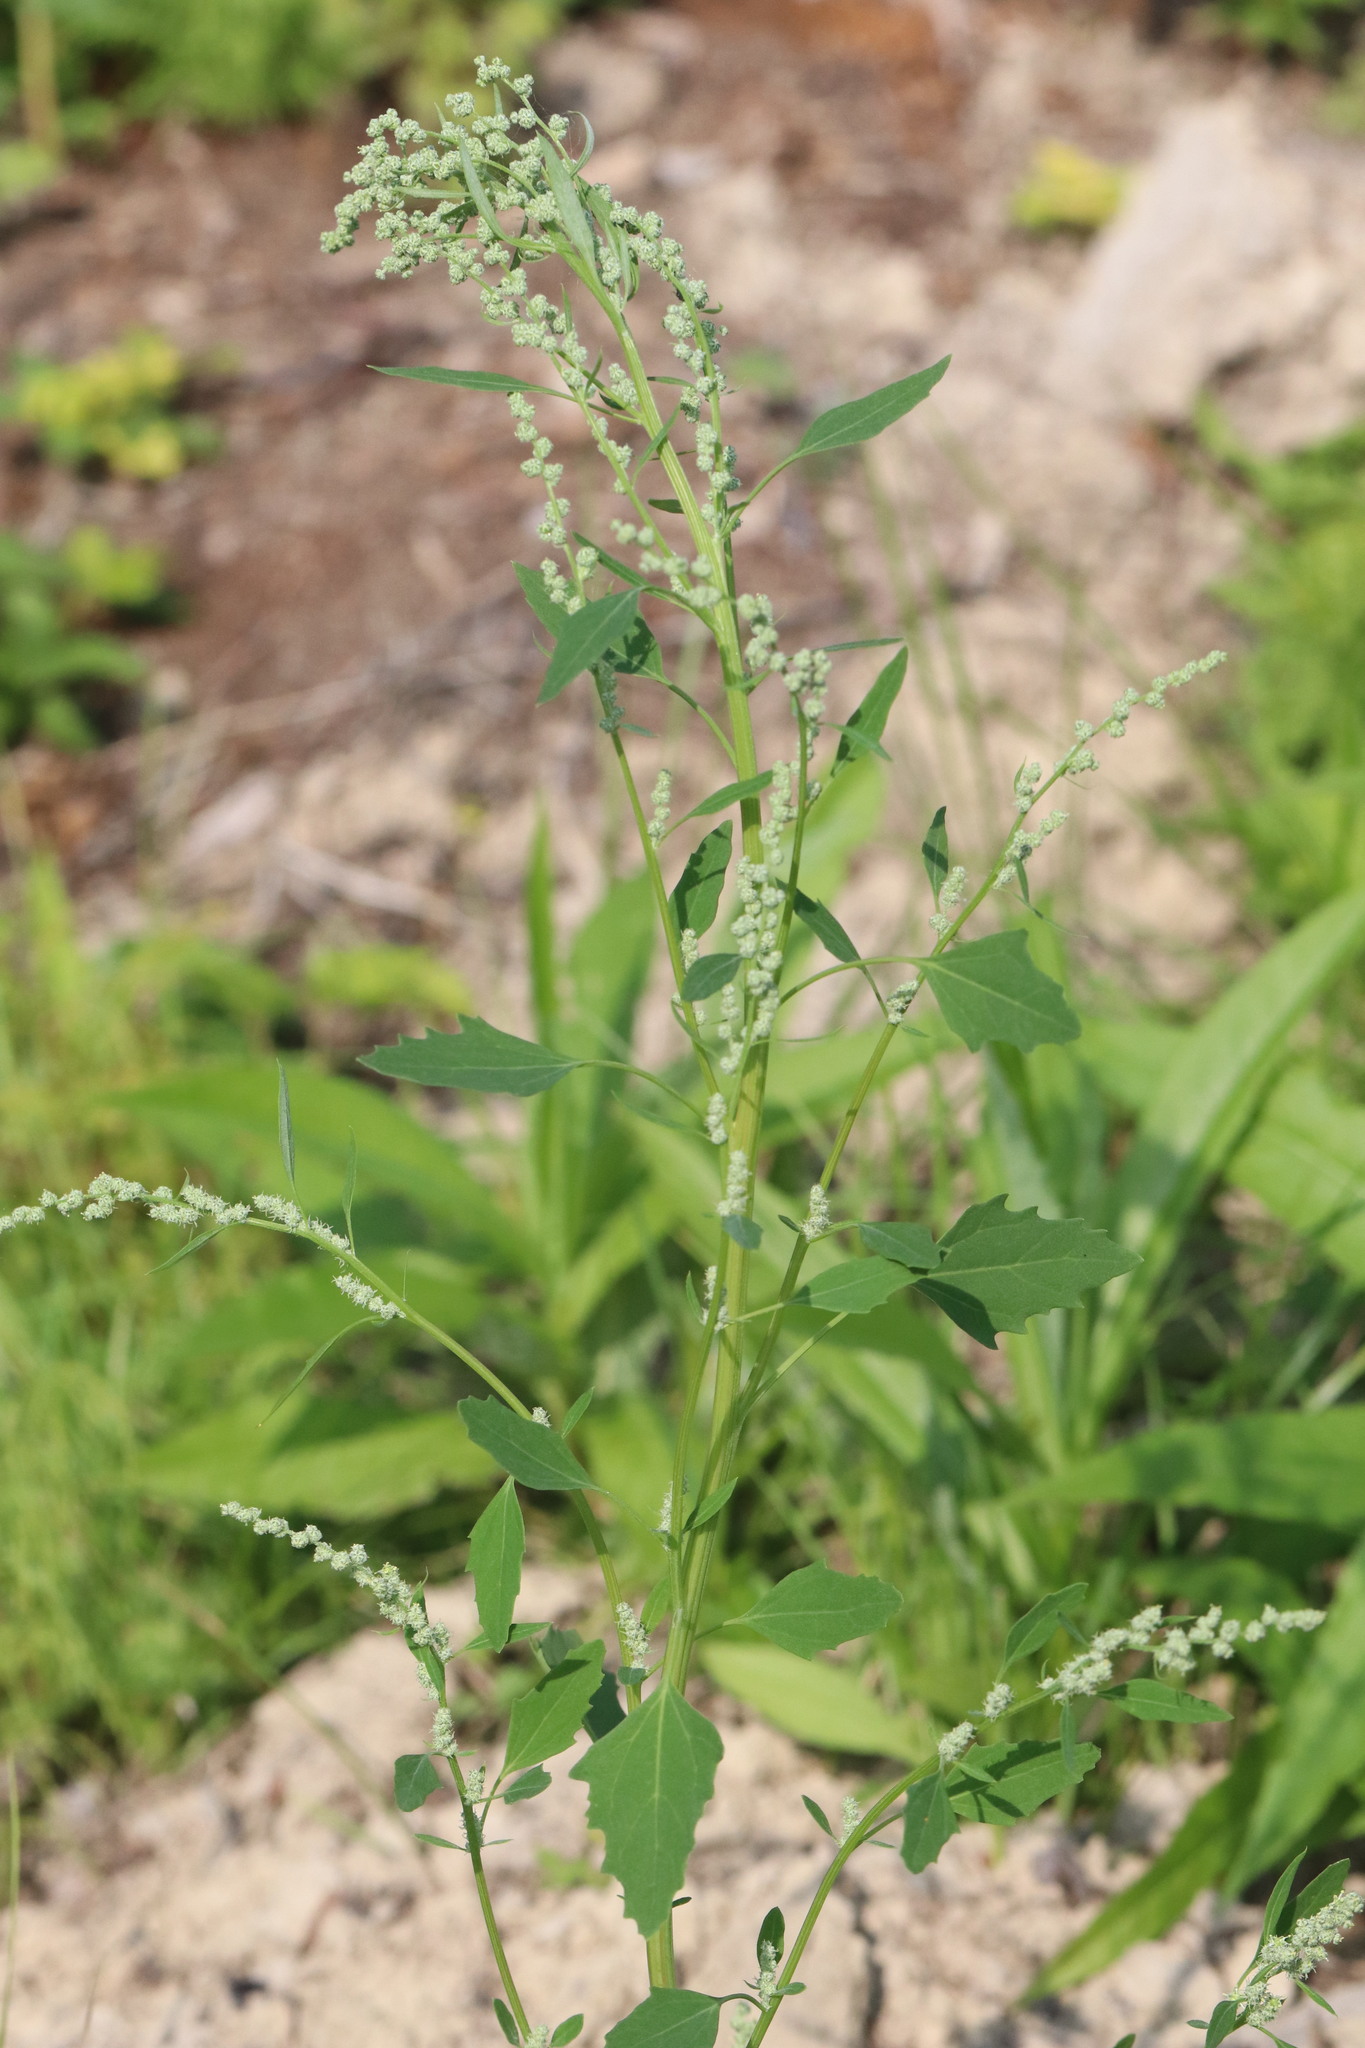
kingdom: Plantae
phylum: Tracheophyta
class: Magnoliopsida
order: Caryophyllales
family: Amaranthaceae
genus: Chenopodium
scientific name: Chenopodium album
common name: Fat-hen
